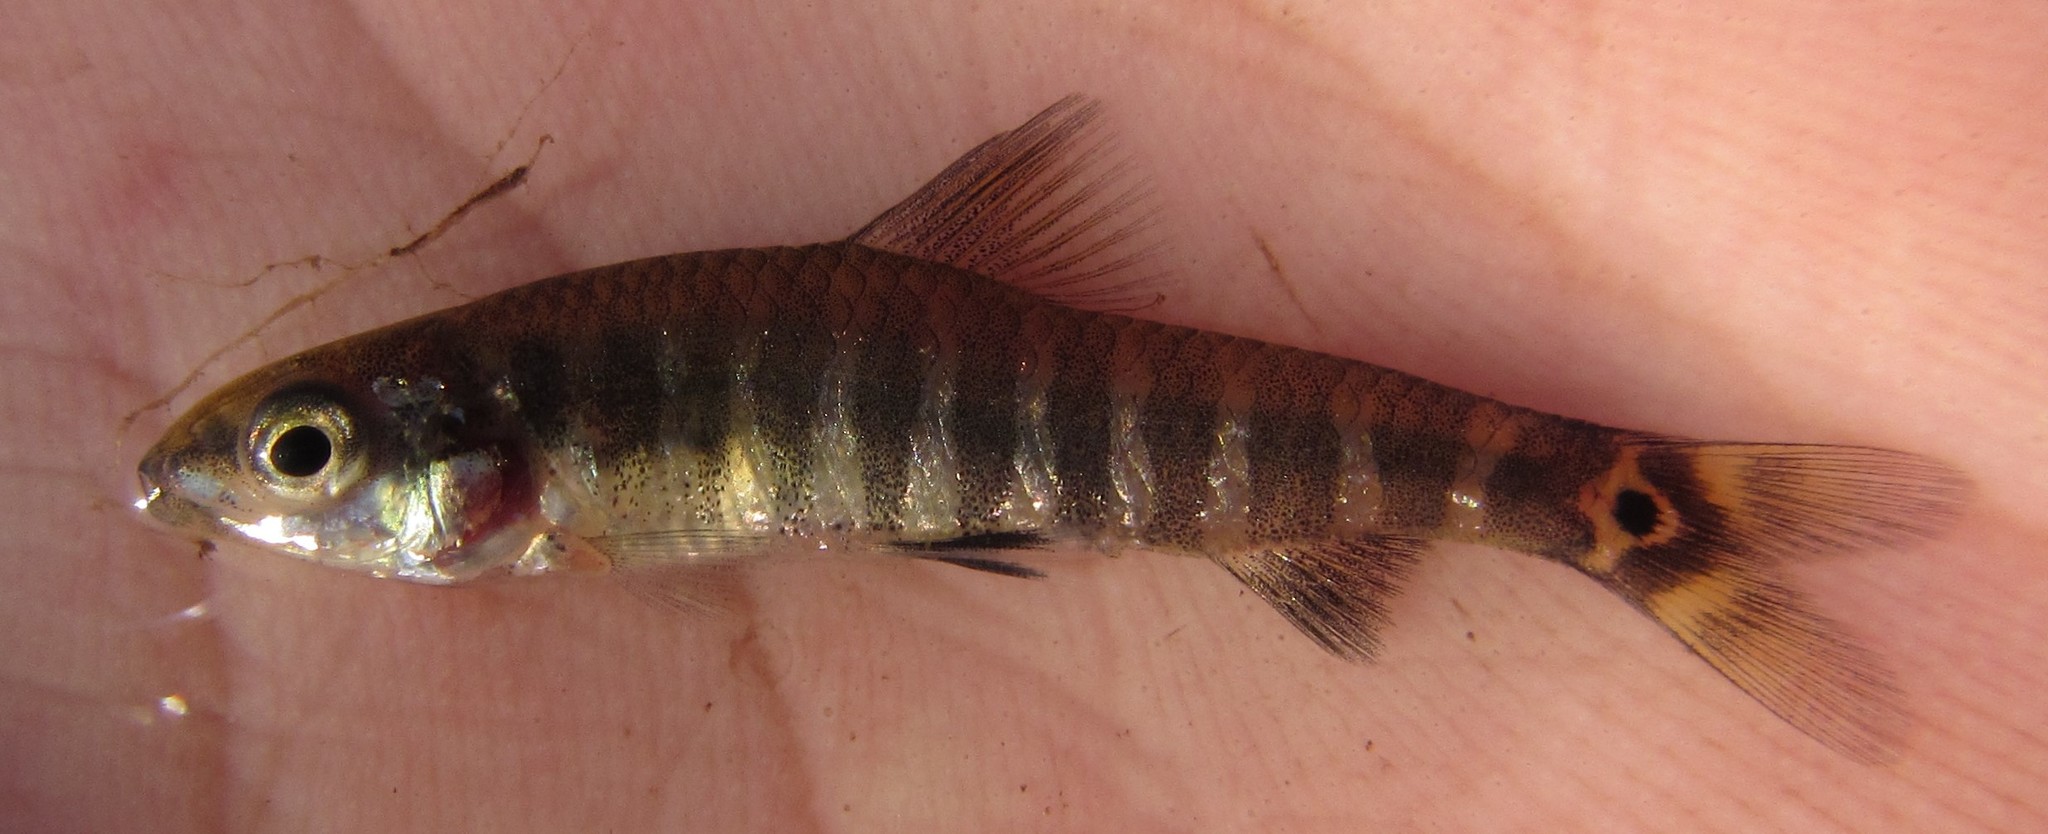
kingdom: Animalia
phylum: Chordata
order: Characiformes
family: Distichodontidae
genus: Nannocharax
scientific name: Nannocharax machadoi
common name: Dwarf citharine
